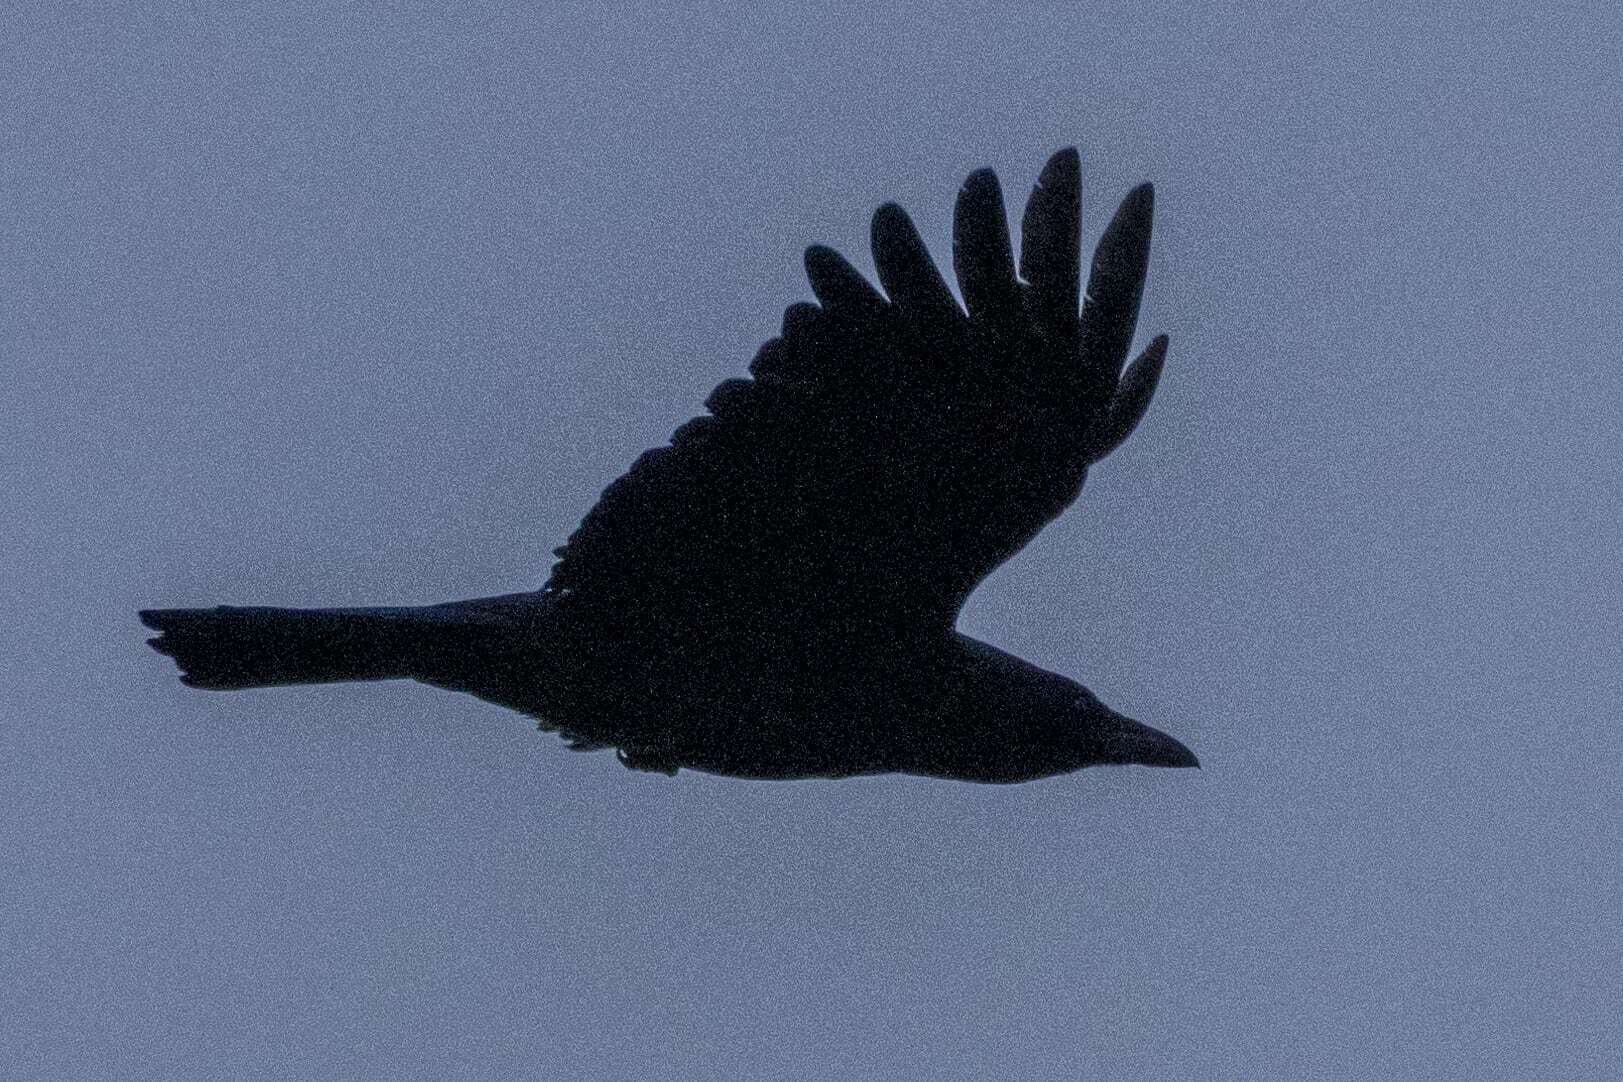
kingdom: Animalia
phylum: Chordata
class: Aves
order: Passeriformes
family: Corvidae
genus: Corvus
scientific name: Corvus corone
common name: Carrion crow
